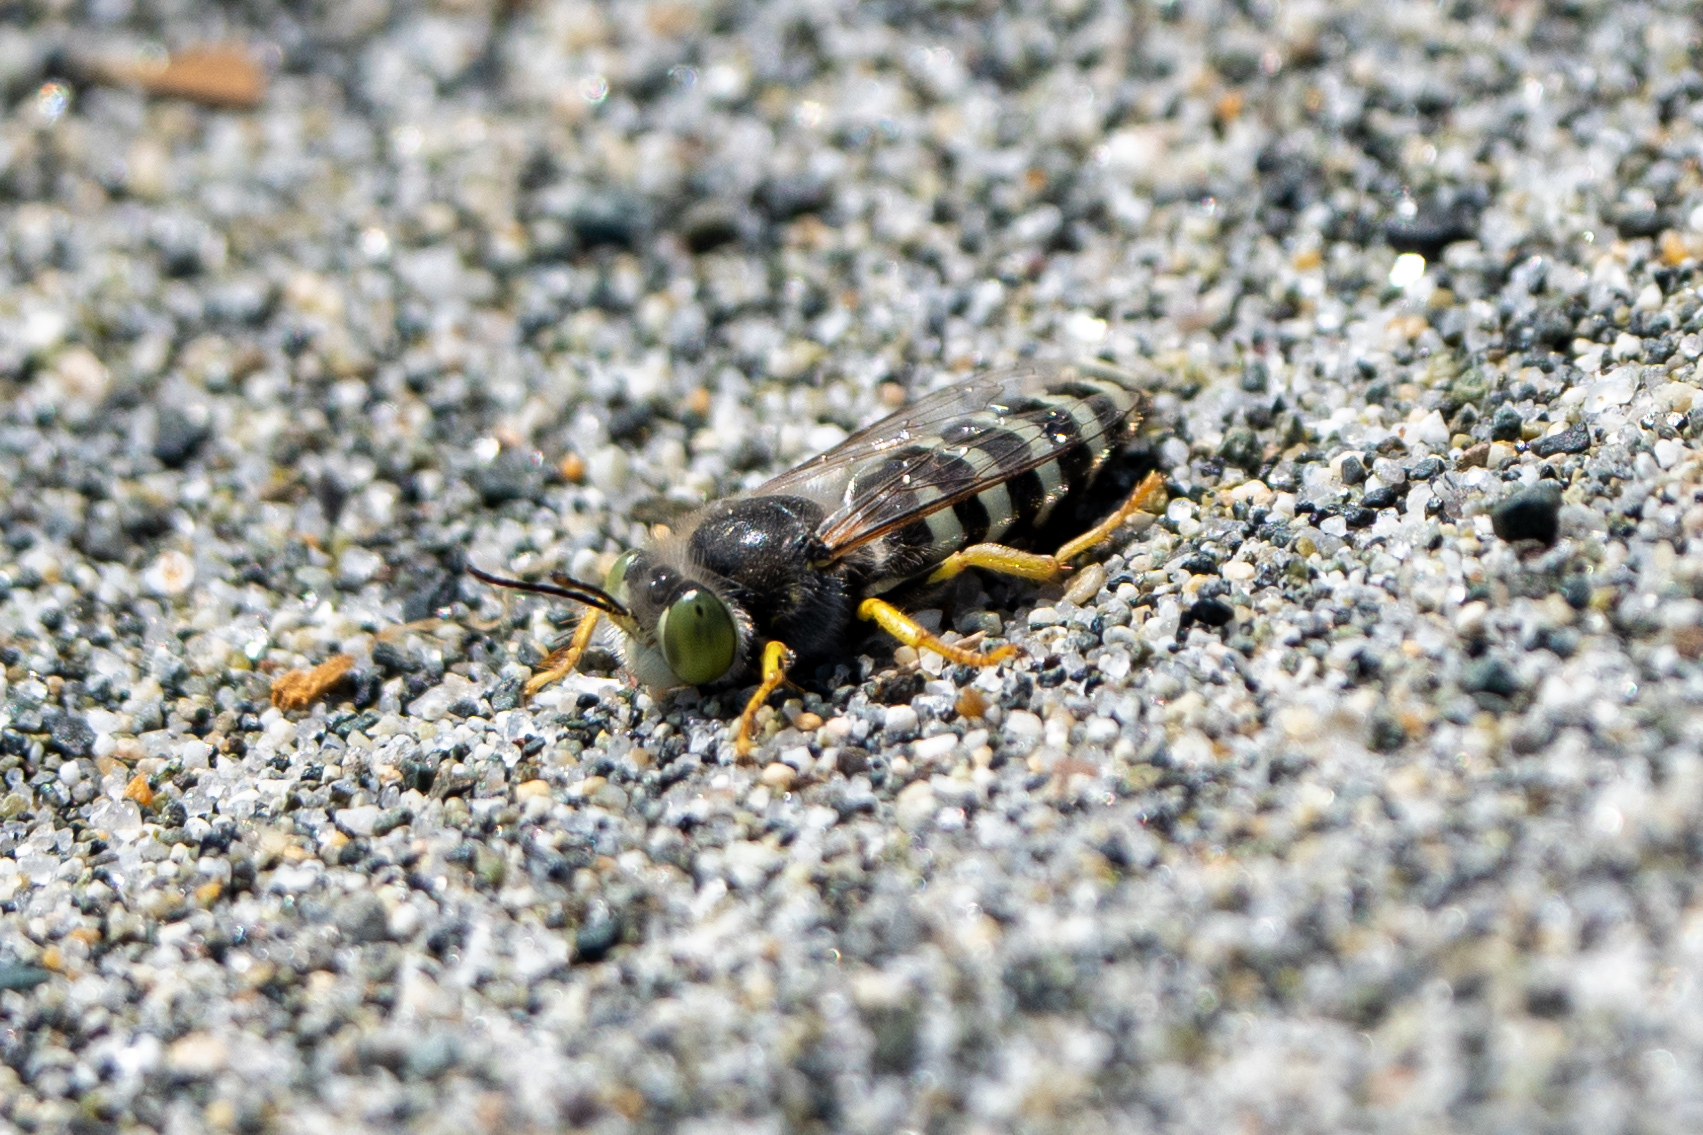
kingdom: Animalia
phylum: Arthropoda
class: Insecta
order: Hymenoptera
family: Crabronidae
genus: Bembix
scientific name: Bembix americana
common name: American sand wasp
